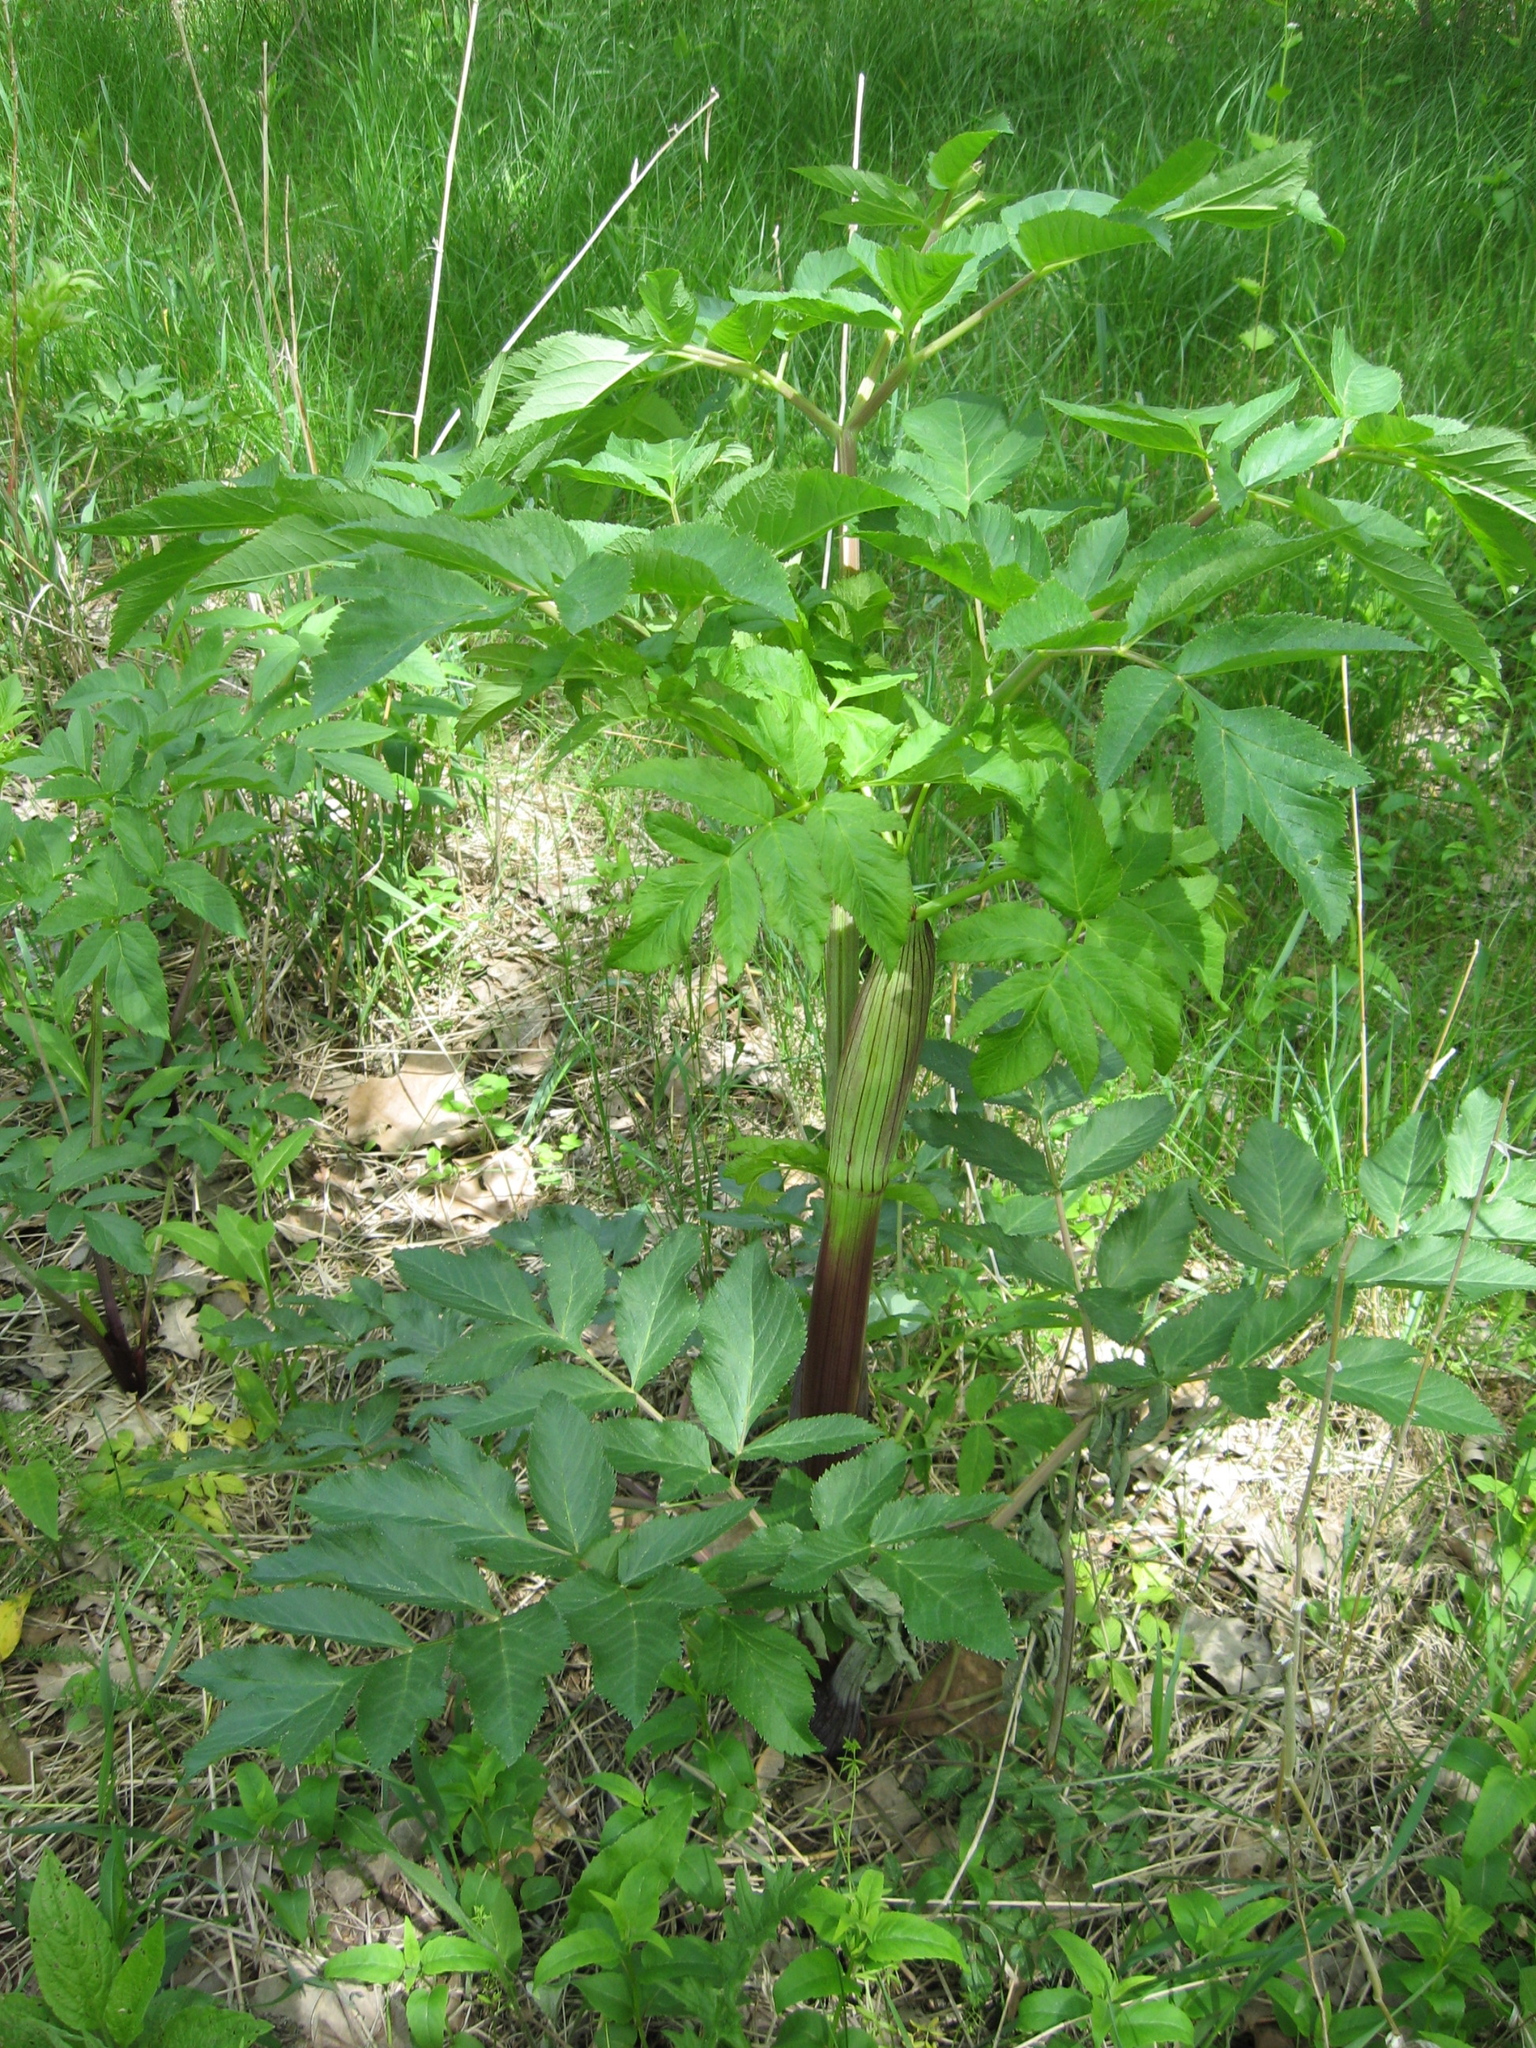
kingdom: Plantae
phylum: Tracheophyta
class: Magnoliopsida
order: Apiales
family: Apiaceae
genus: Angelica
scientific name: Angelica atropurpurea
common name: Great angelica
